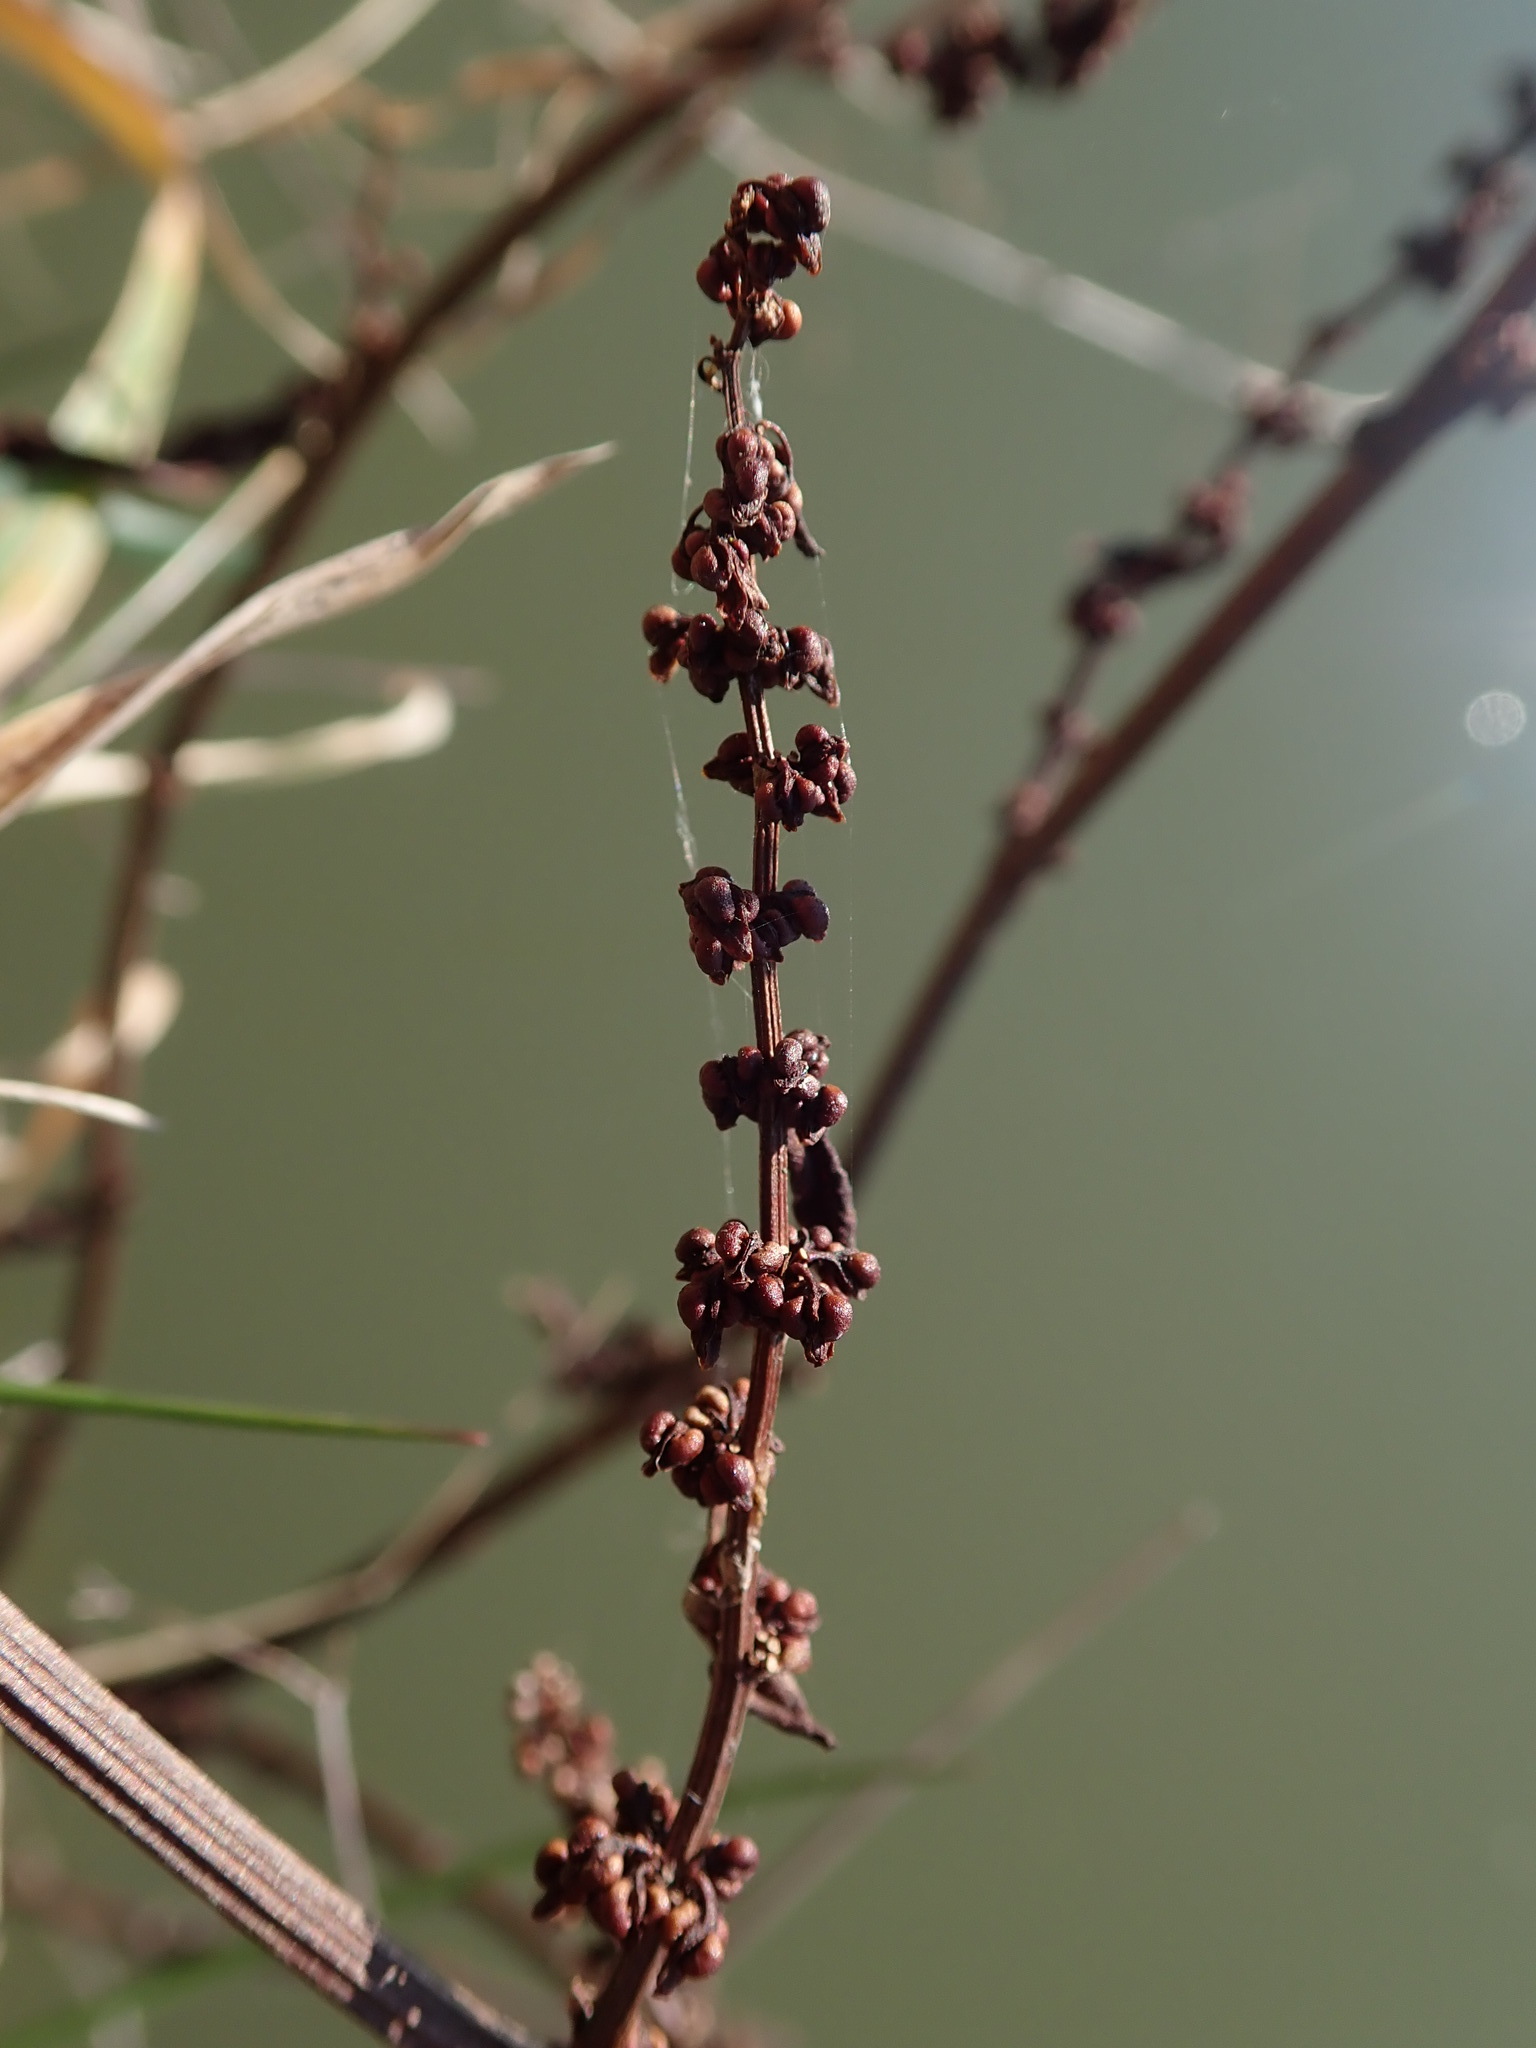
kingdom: Plantae
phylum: Tracheophyta
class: Magnoliopsida
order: Caryophyllales
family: Polygonaceae
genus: Rumex
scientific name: Rumex conglomeratus
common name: Clustered dock
